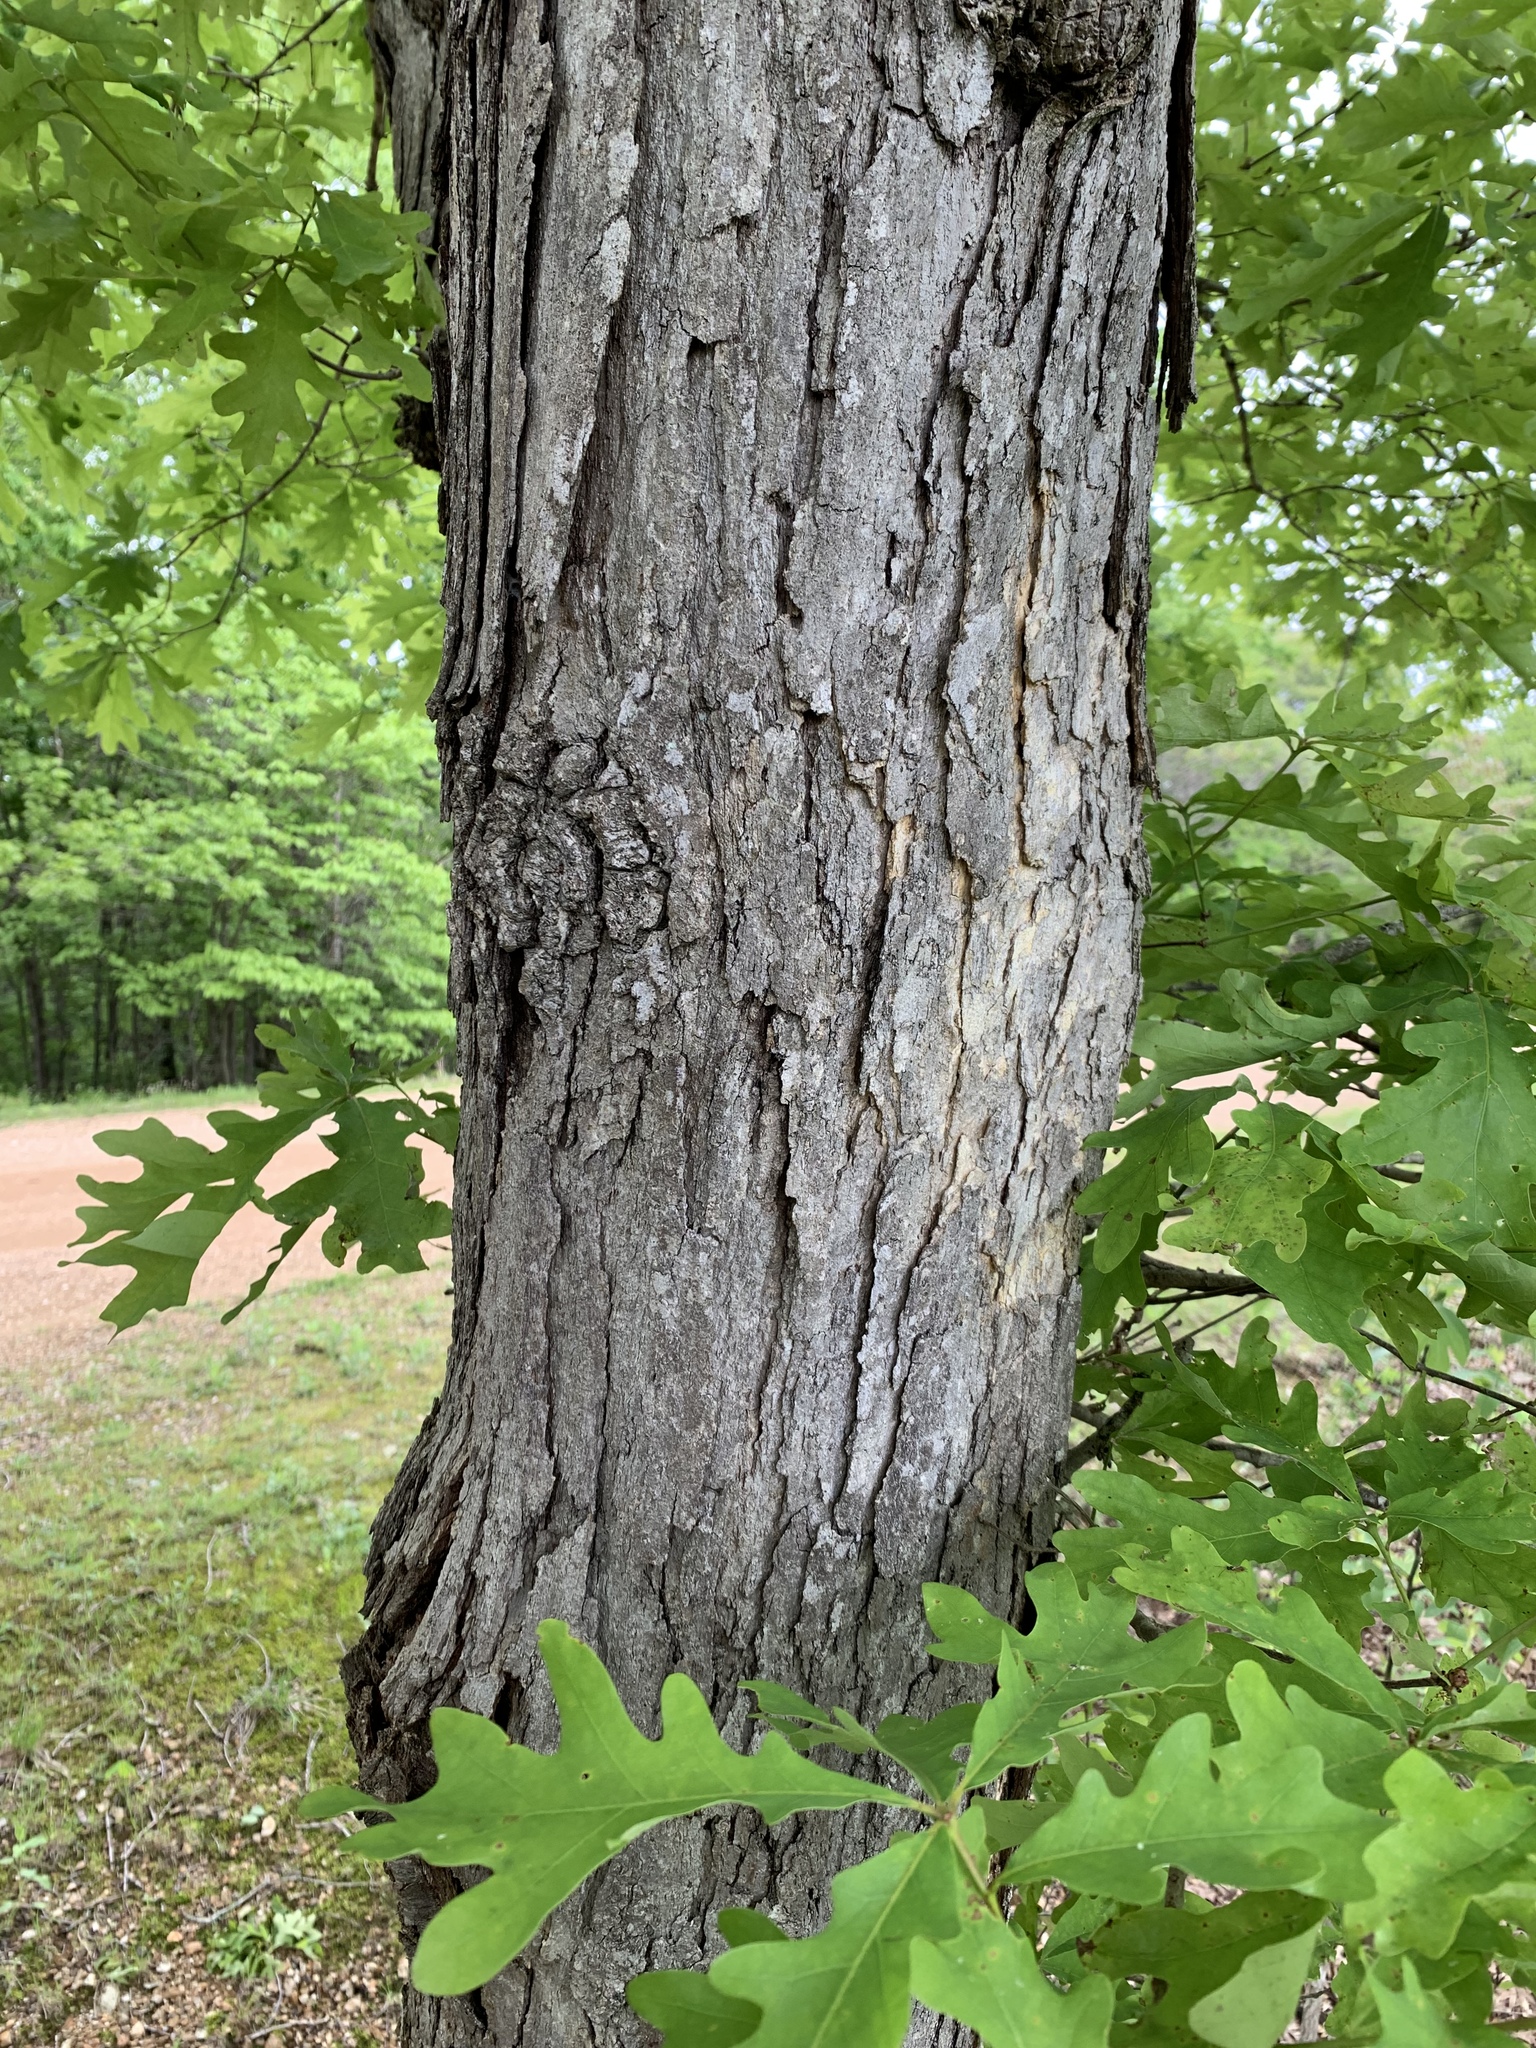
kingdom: Plantae
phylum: Tracheophyta
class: Magnoliopsida
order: Fagales
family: Fagaceae
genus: Quercus
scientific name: Quercus alba
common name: White oak
